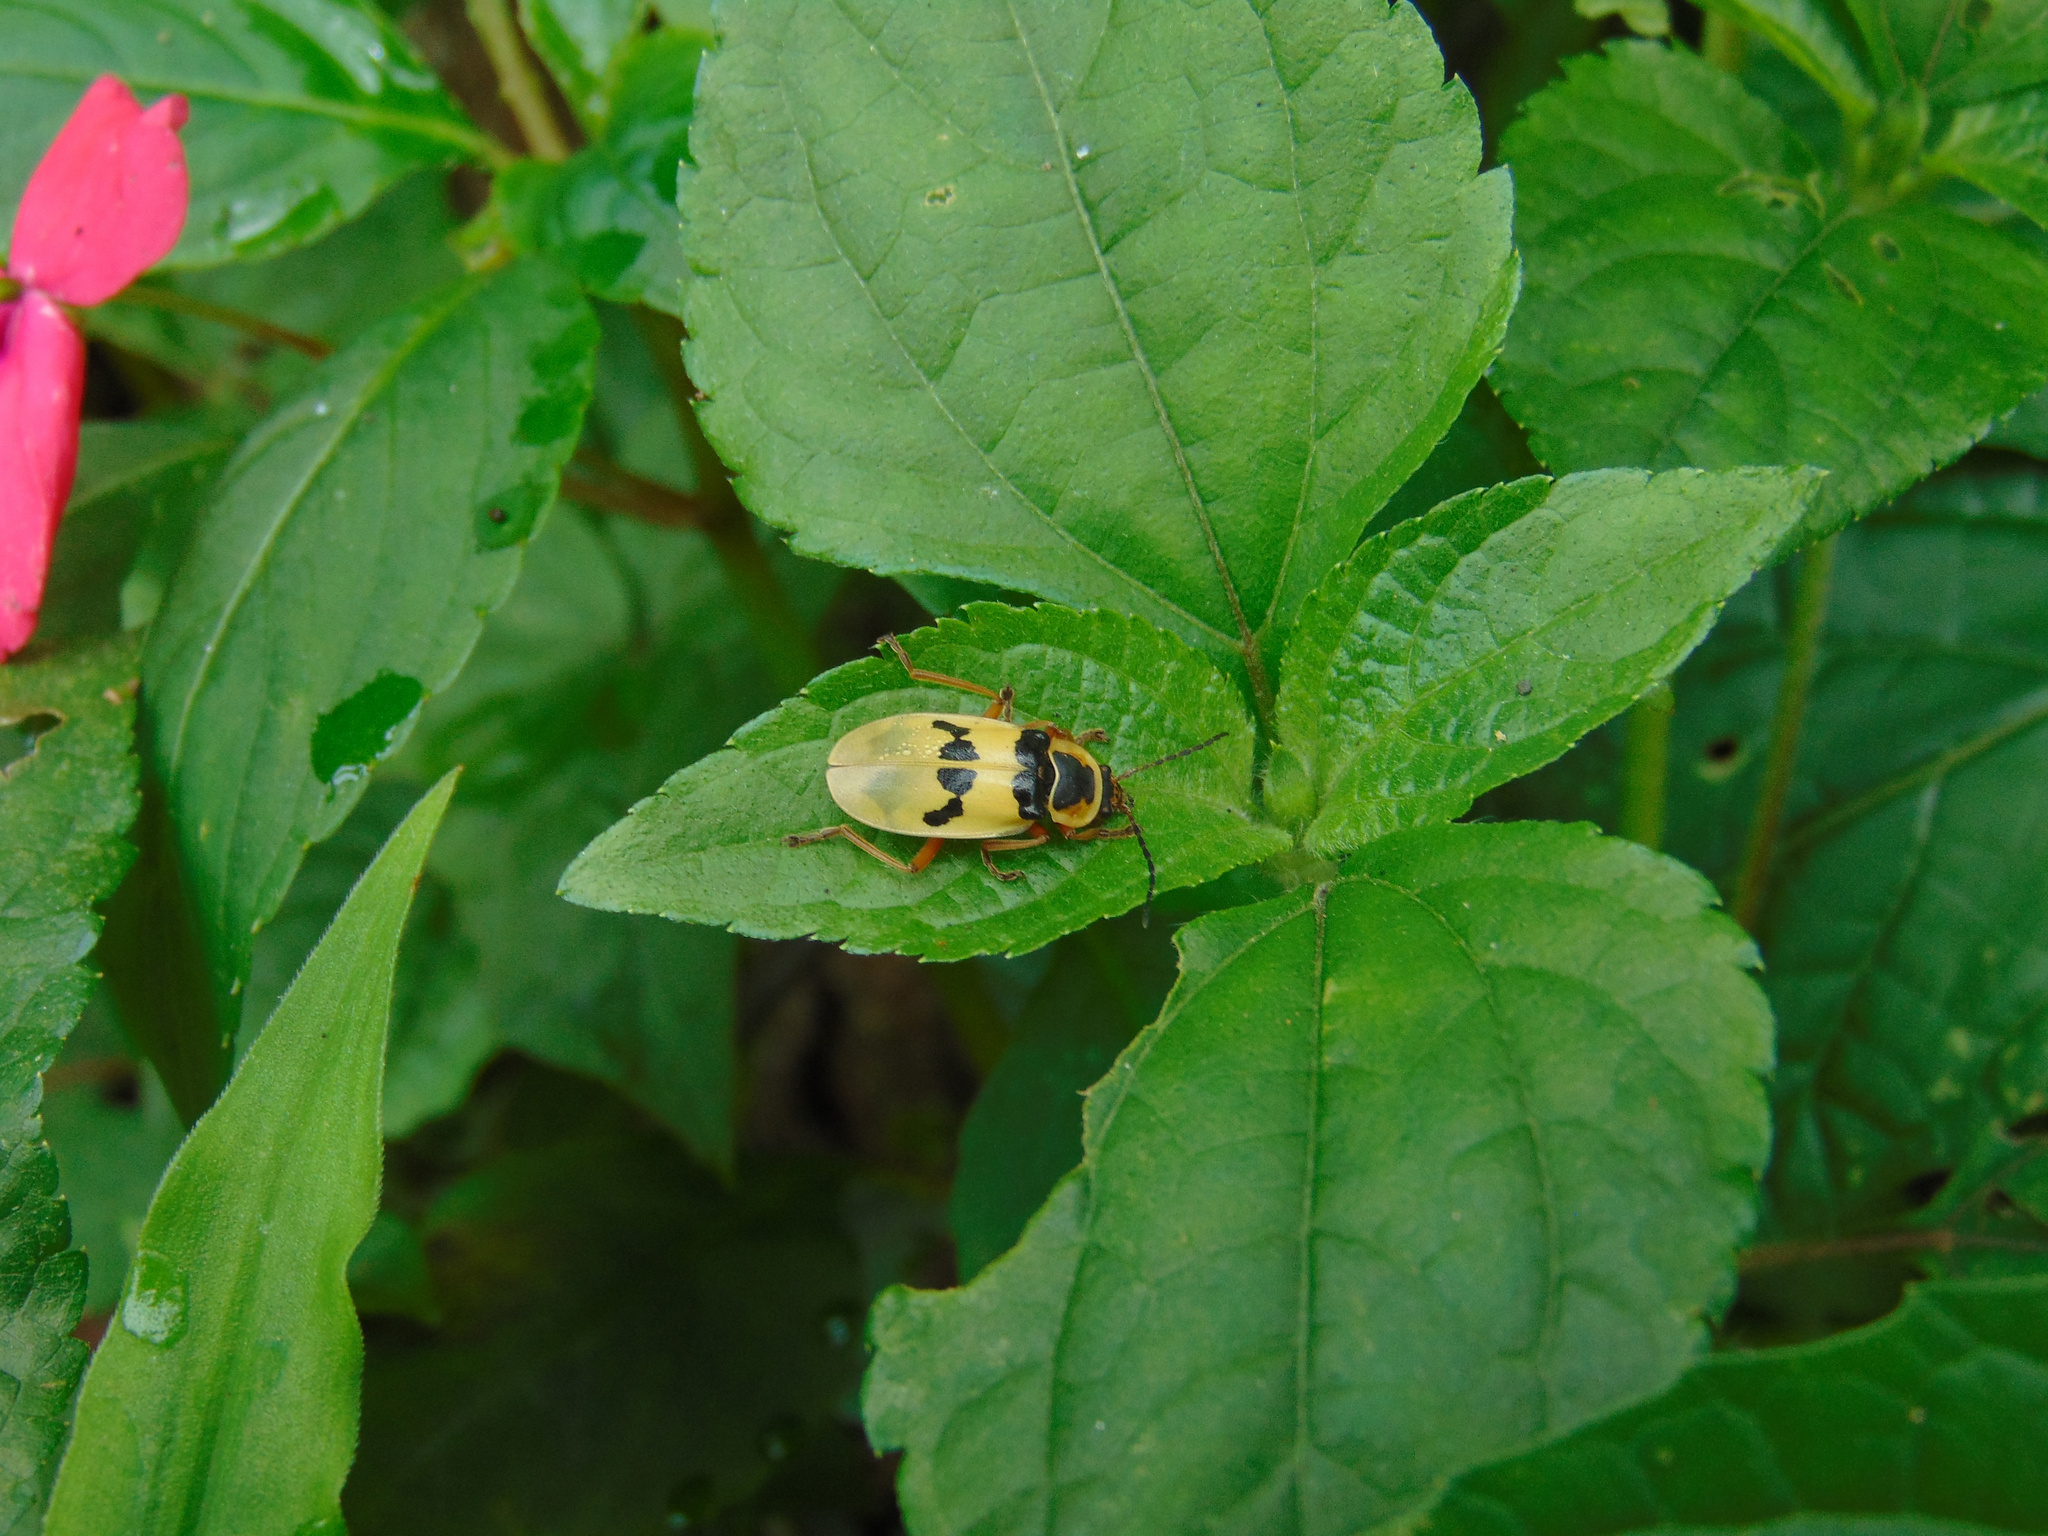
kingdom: Animalia
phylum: Arthropoda
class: Insecta
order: Coleoptera
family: Cantharidae
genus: Chauliognathus
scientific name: Chauliognathus
